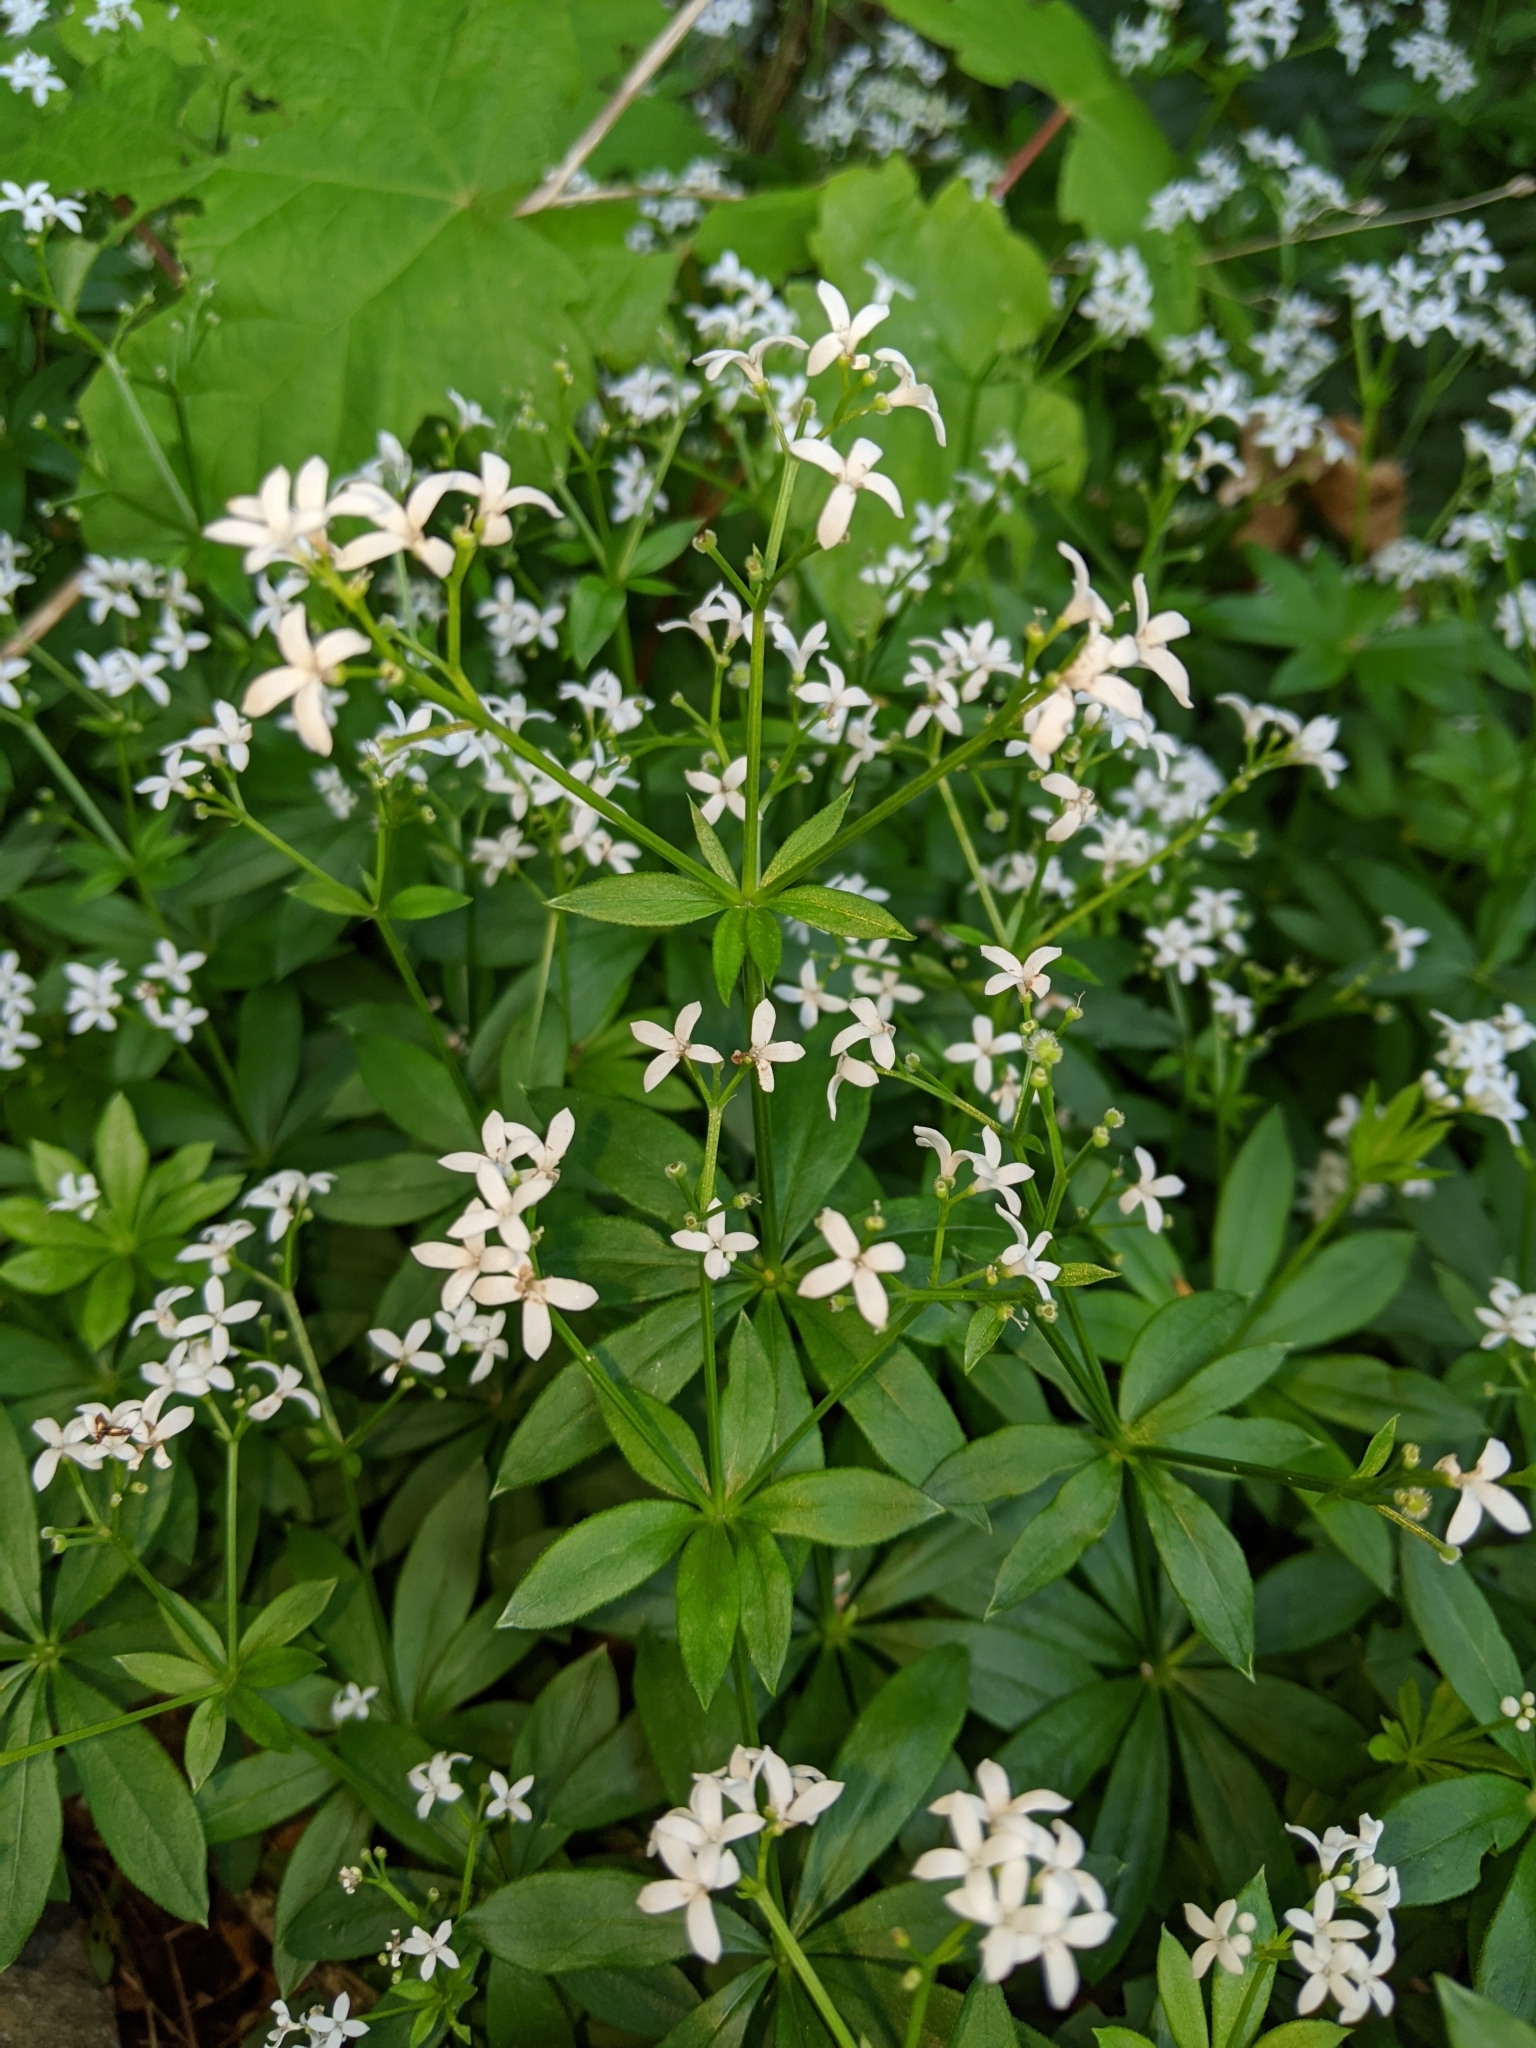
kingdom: Plantae
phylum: Tracheophyta
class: Magnoliopsida
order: Gentianales
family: Rubiaceae
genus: Galium
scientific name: Galium odoratum
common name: Sweet woodruff
